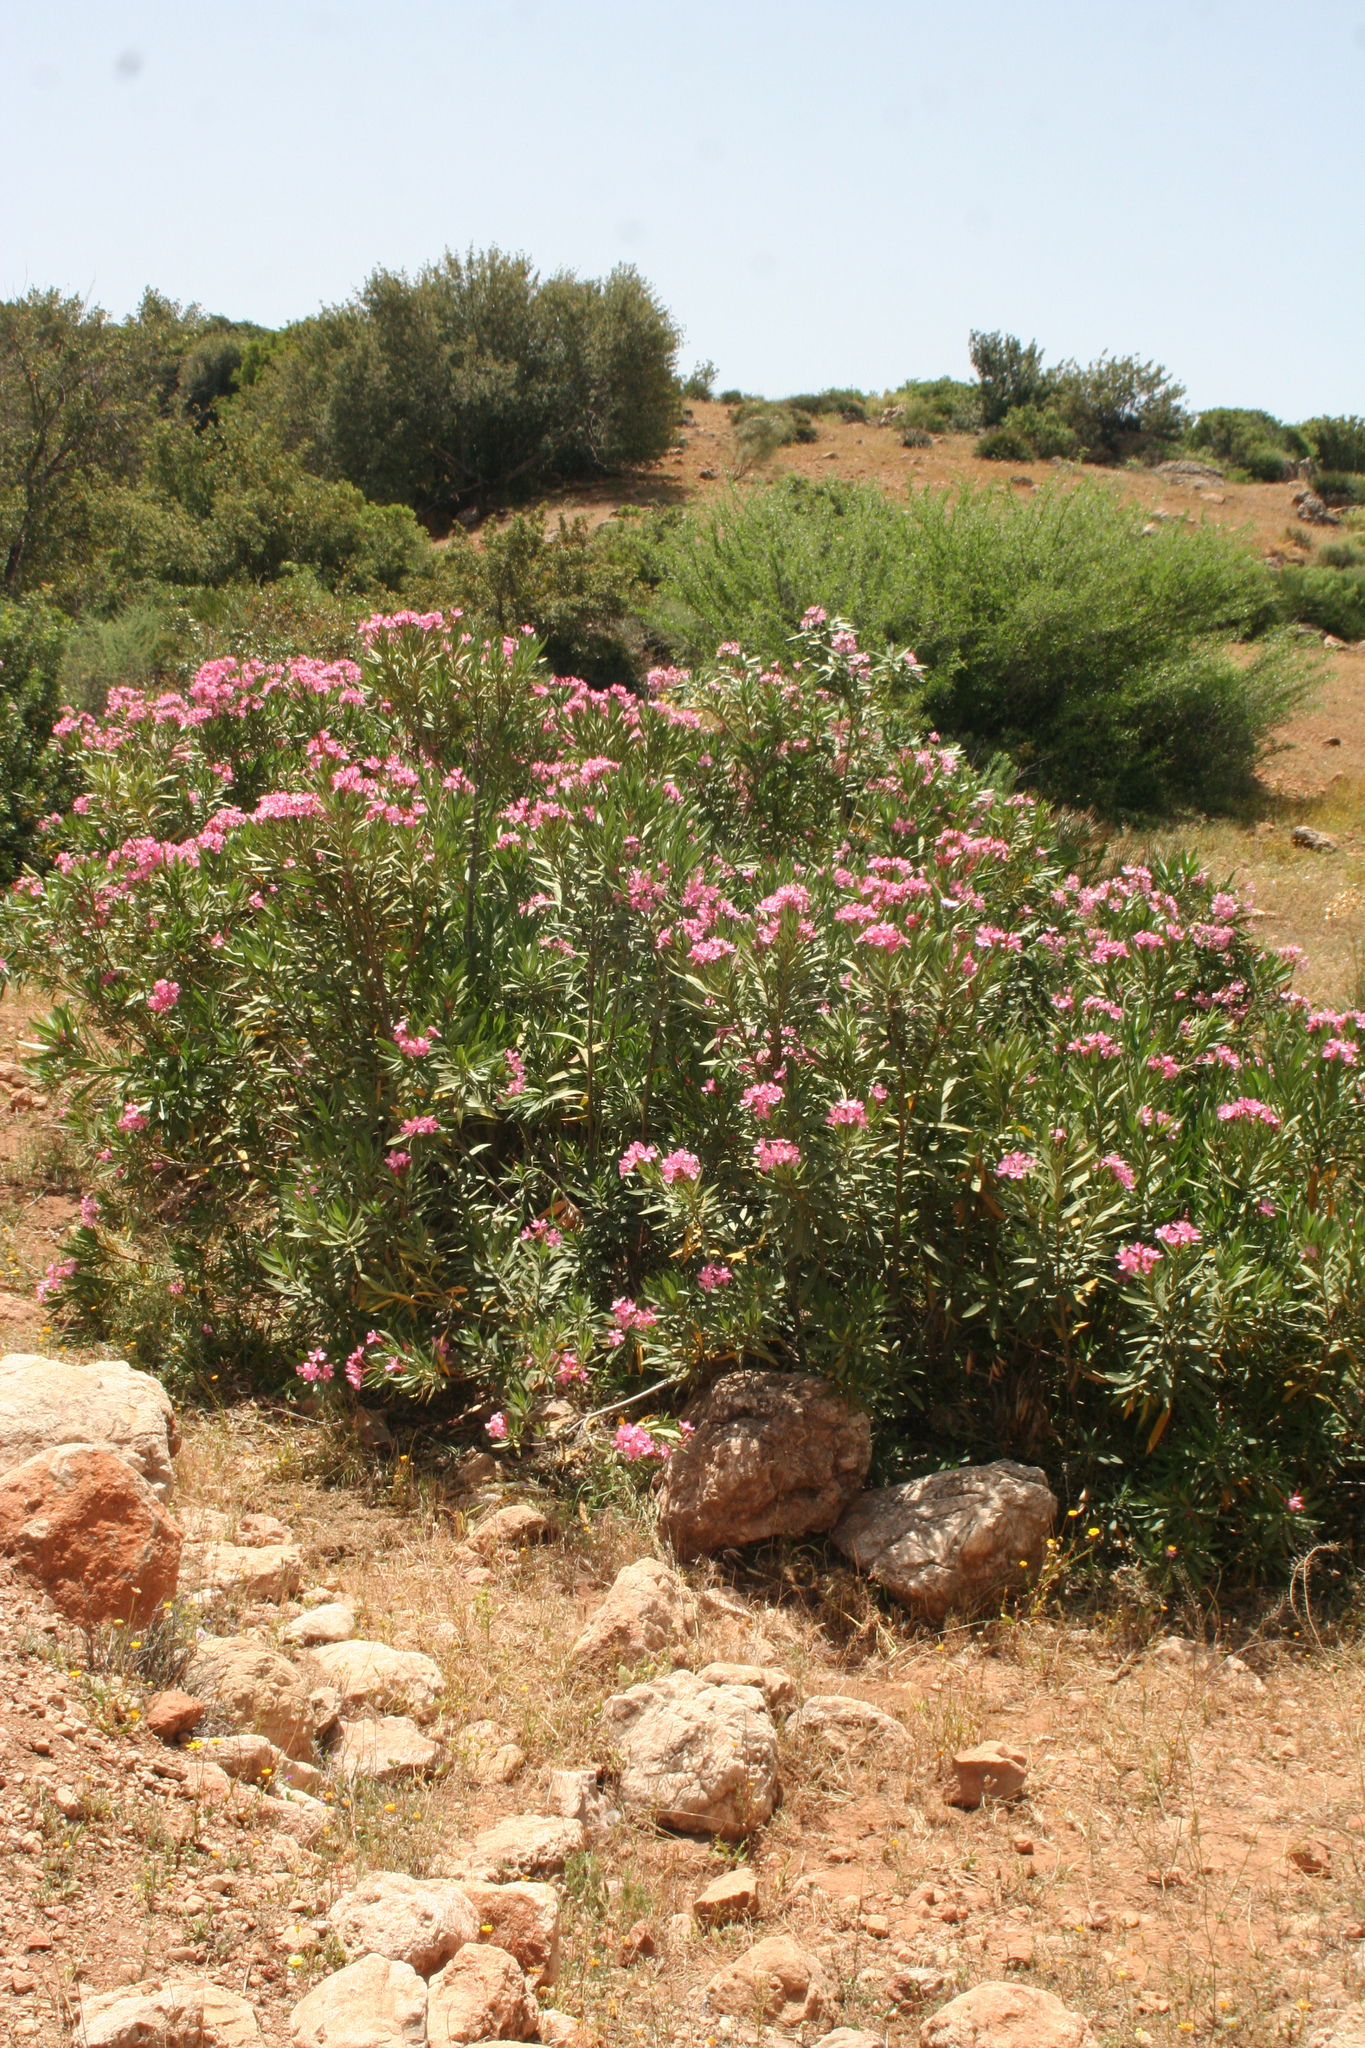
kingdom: Plantae
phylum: Tracheophyta
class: Magnoliopsida
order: Gentianales
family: Apocynaceae
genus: Nerium
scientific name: Nerium oleander
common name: Oleander
